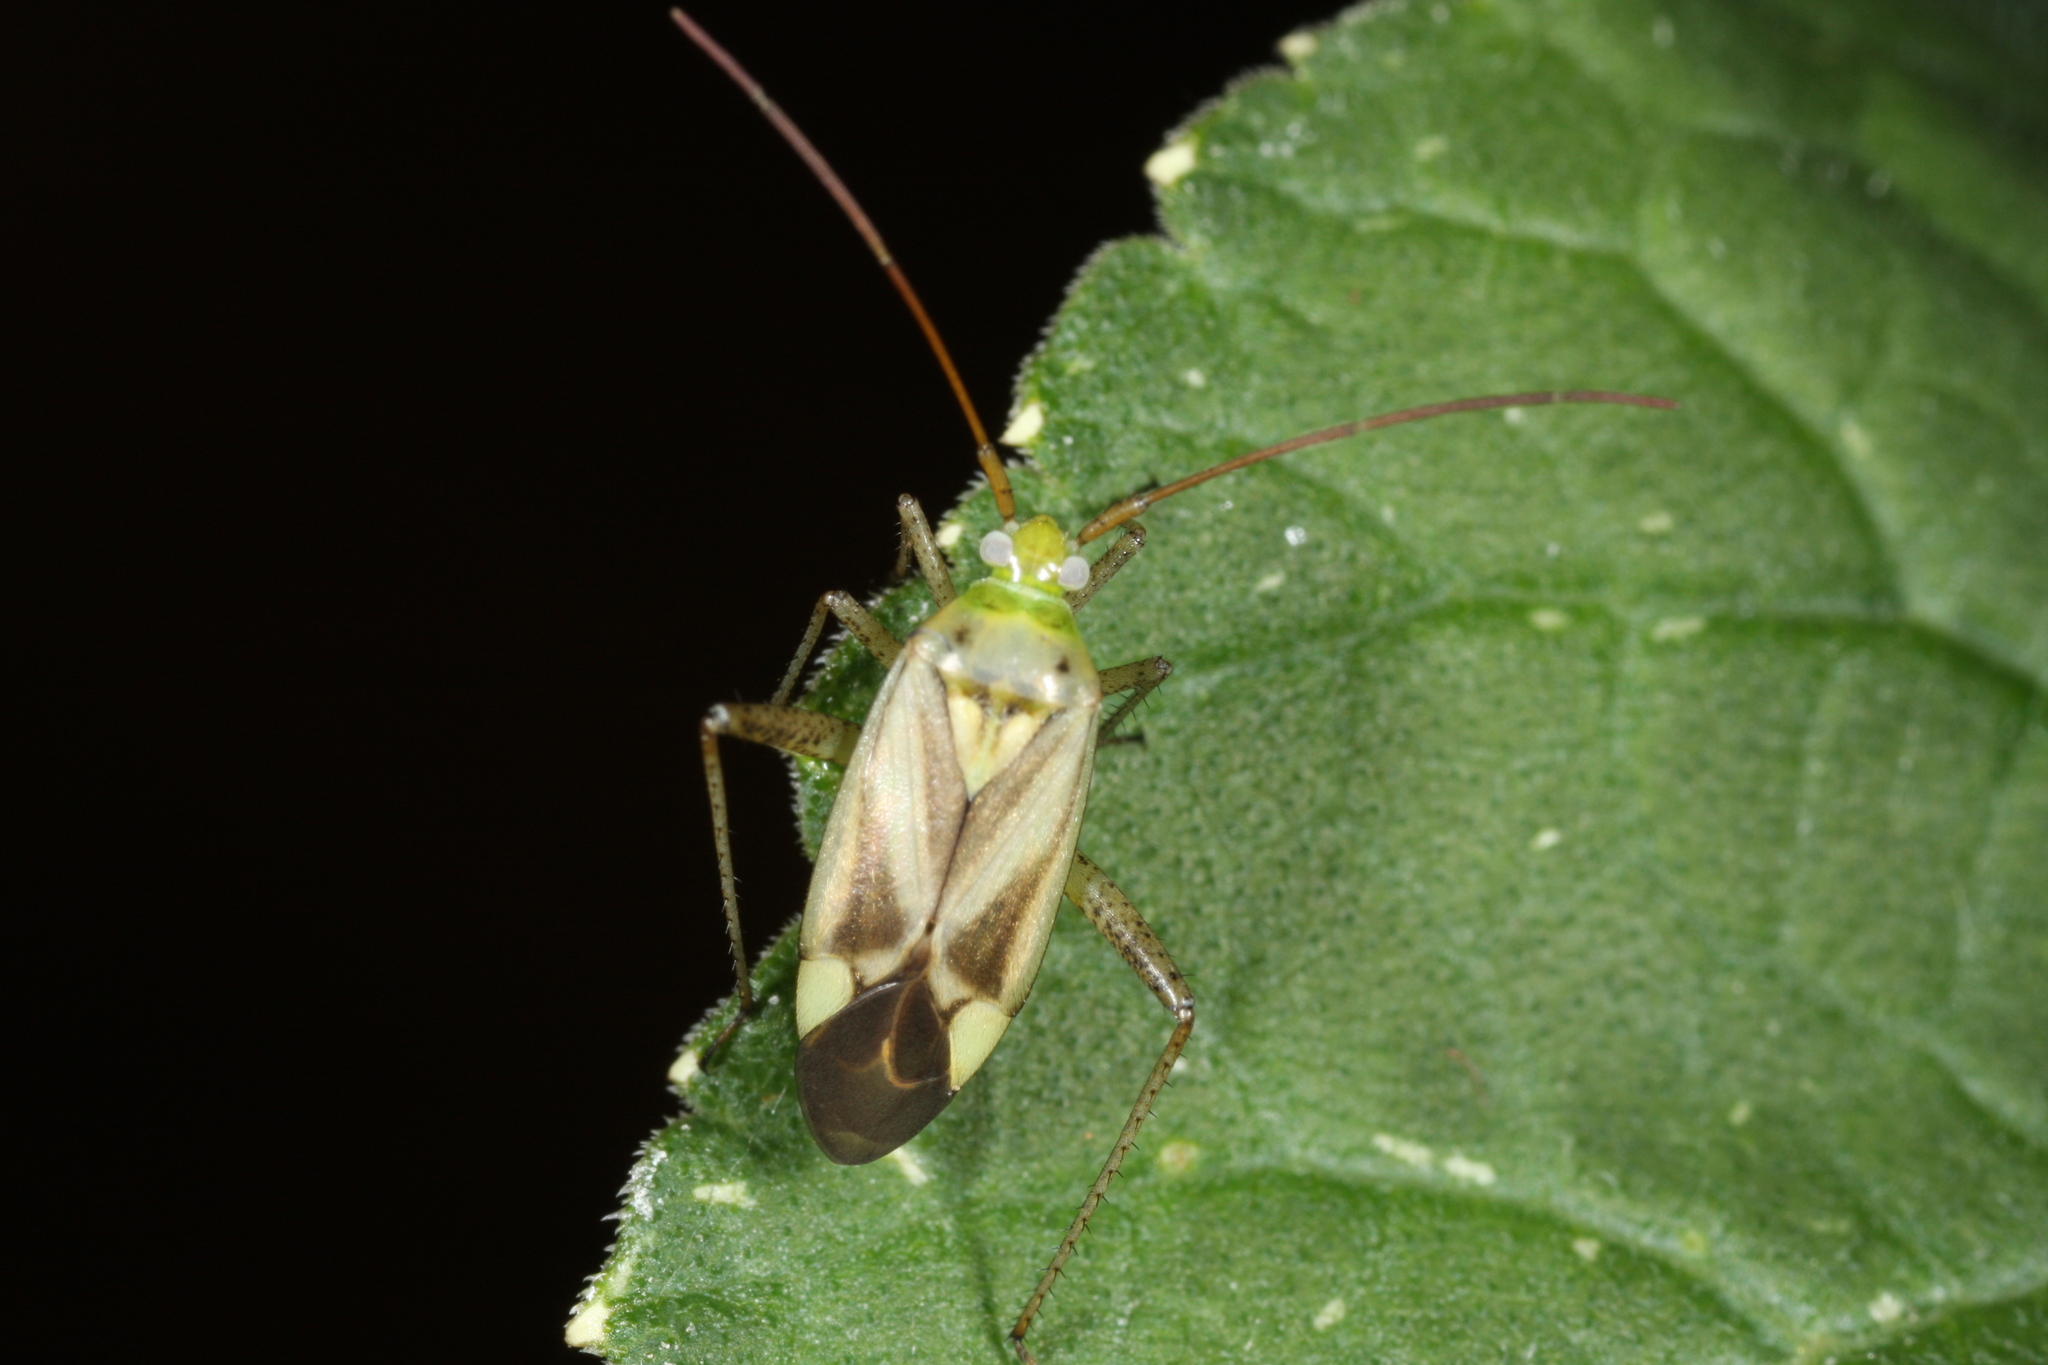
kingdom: Animalia
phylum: Arthropoda
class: Insecta
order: Hemiptera
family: Miridae
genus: Adelphocoris
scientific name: Adelphocoris lineolatus
